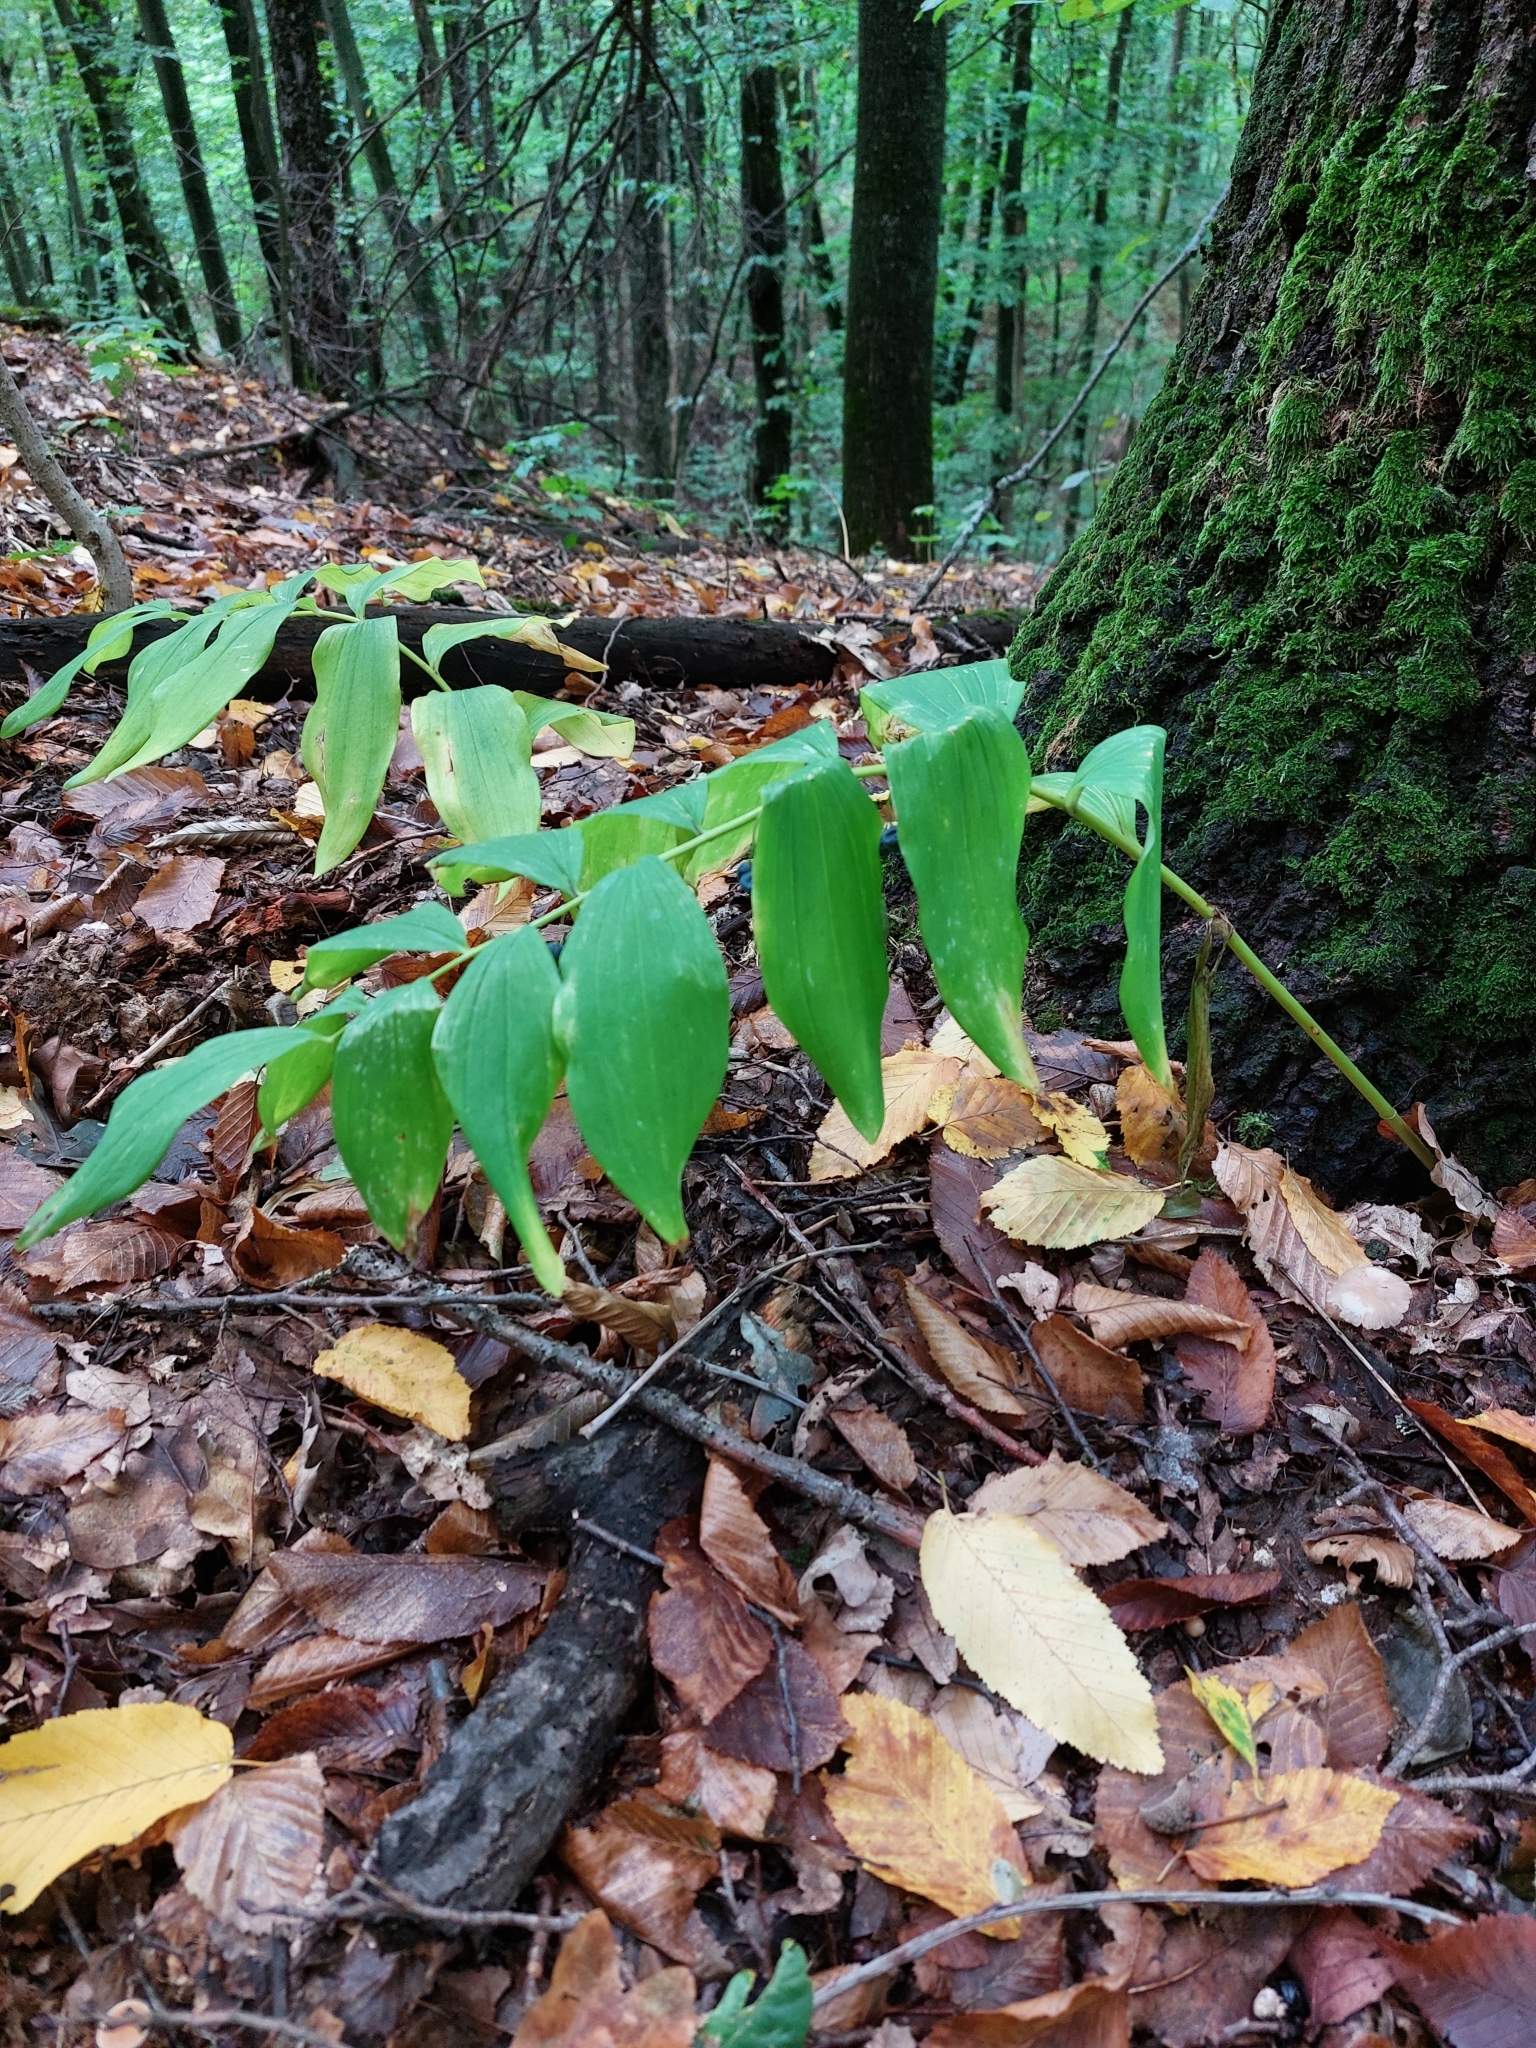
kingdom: Plantae
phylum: Tracheophyta
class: Liliopsida
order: Asparagales
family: Asparagaceae
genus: Polygonatum
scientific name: Polygonatum multiflorum
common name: Solomon's-seal
